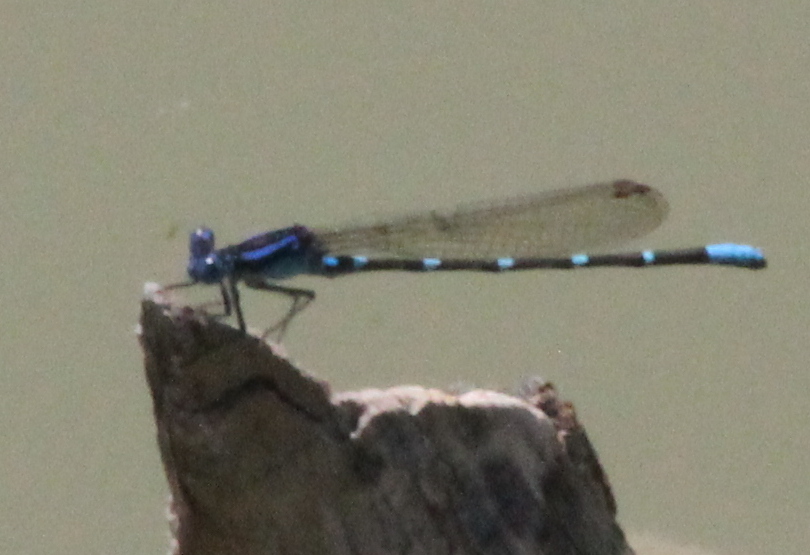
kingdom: Animalia
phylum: Arthropoda
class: Insecta
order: Odonata
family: Coenagrionidae
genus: Argia
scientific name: Argia sedula
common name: Blue-ringed dancer
